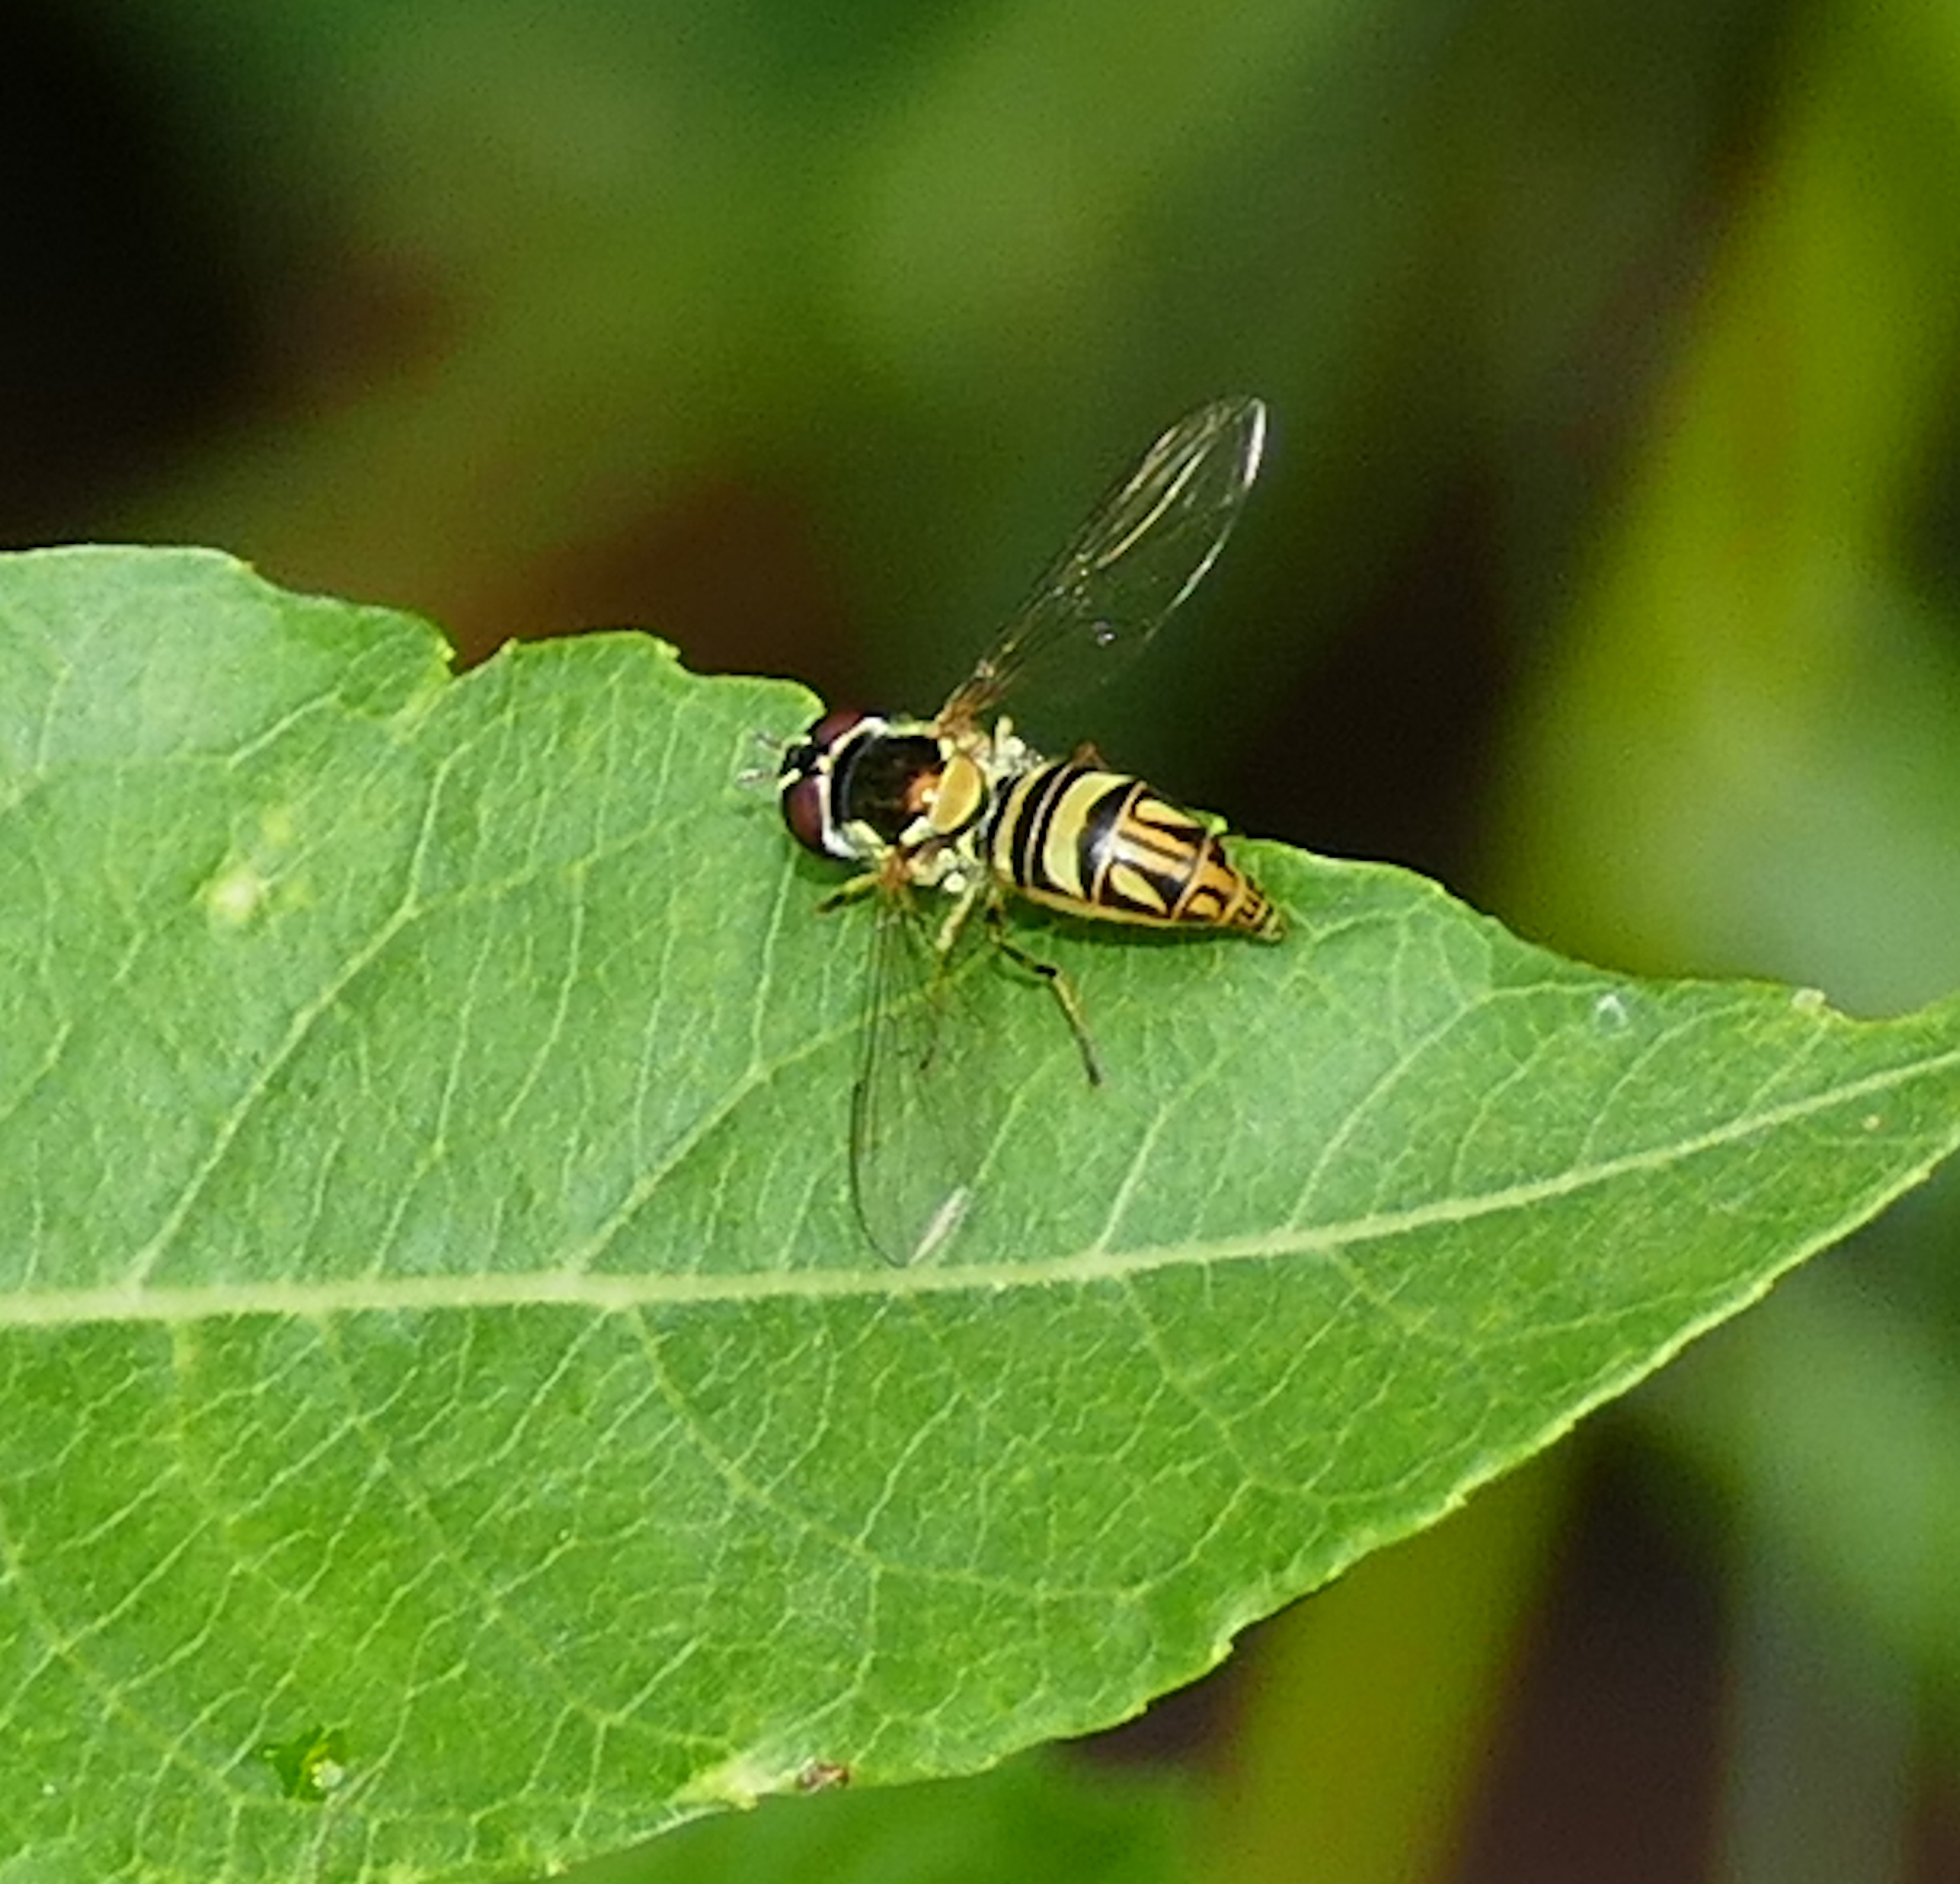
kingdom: Animalia
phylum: Arthropoda
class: Insecta
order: Diptera
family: Syrphidae
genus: Allograpta
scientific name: Allograpta obliqua
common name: Common oblique syrphid
